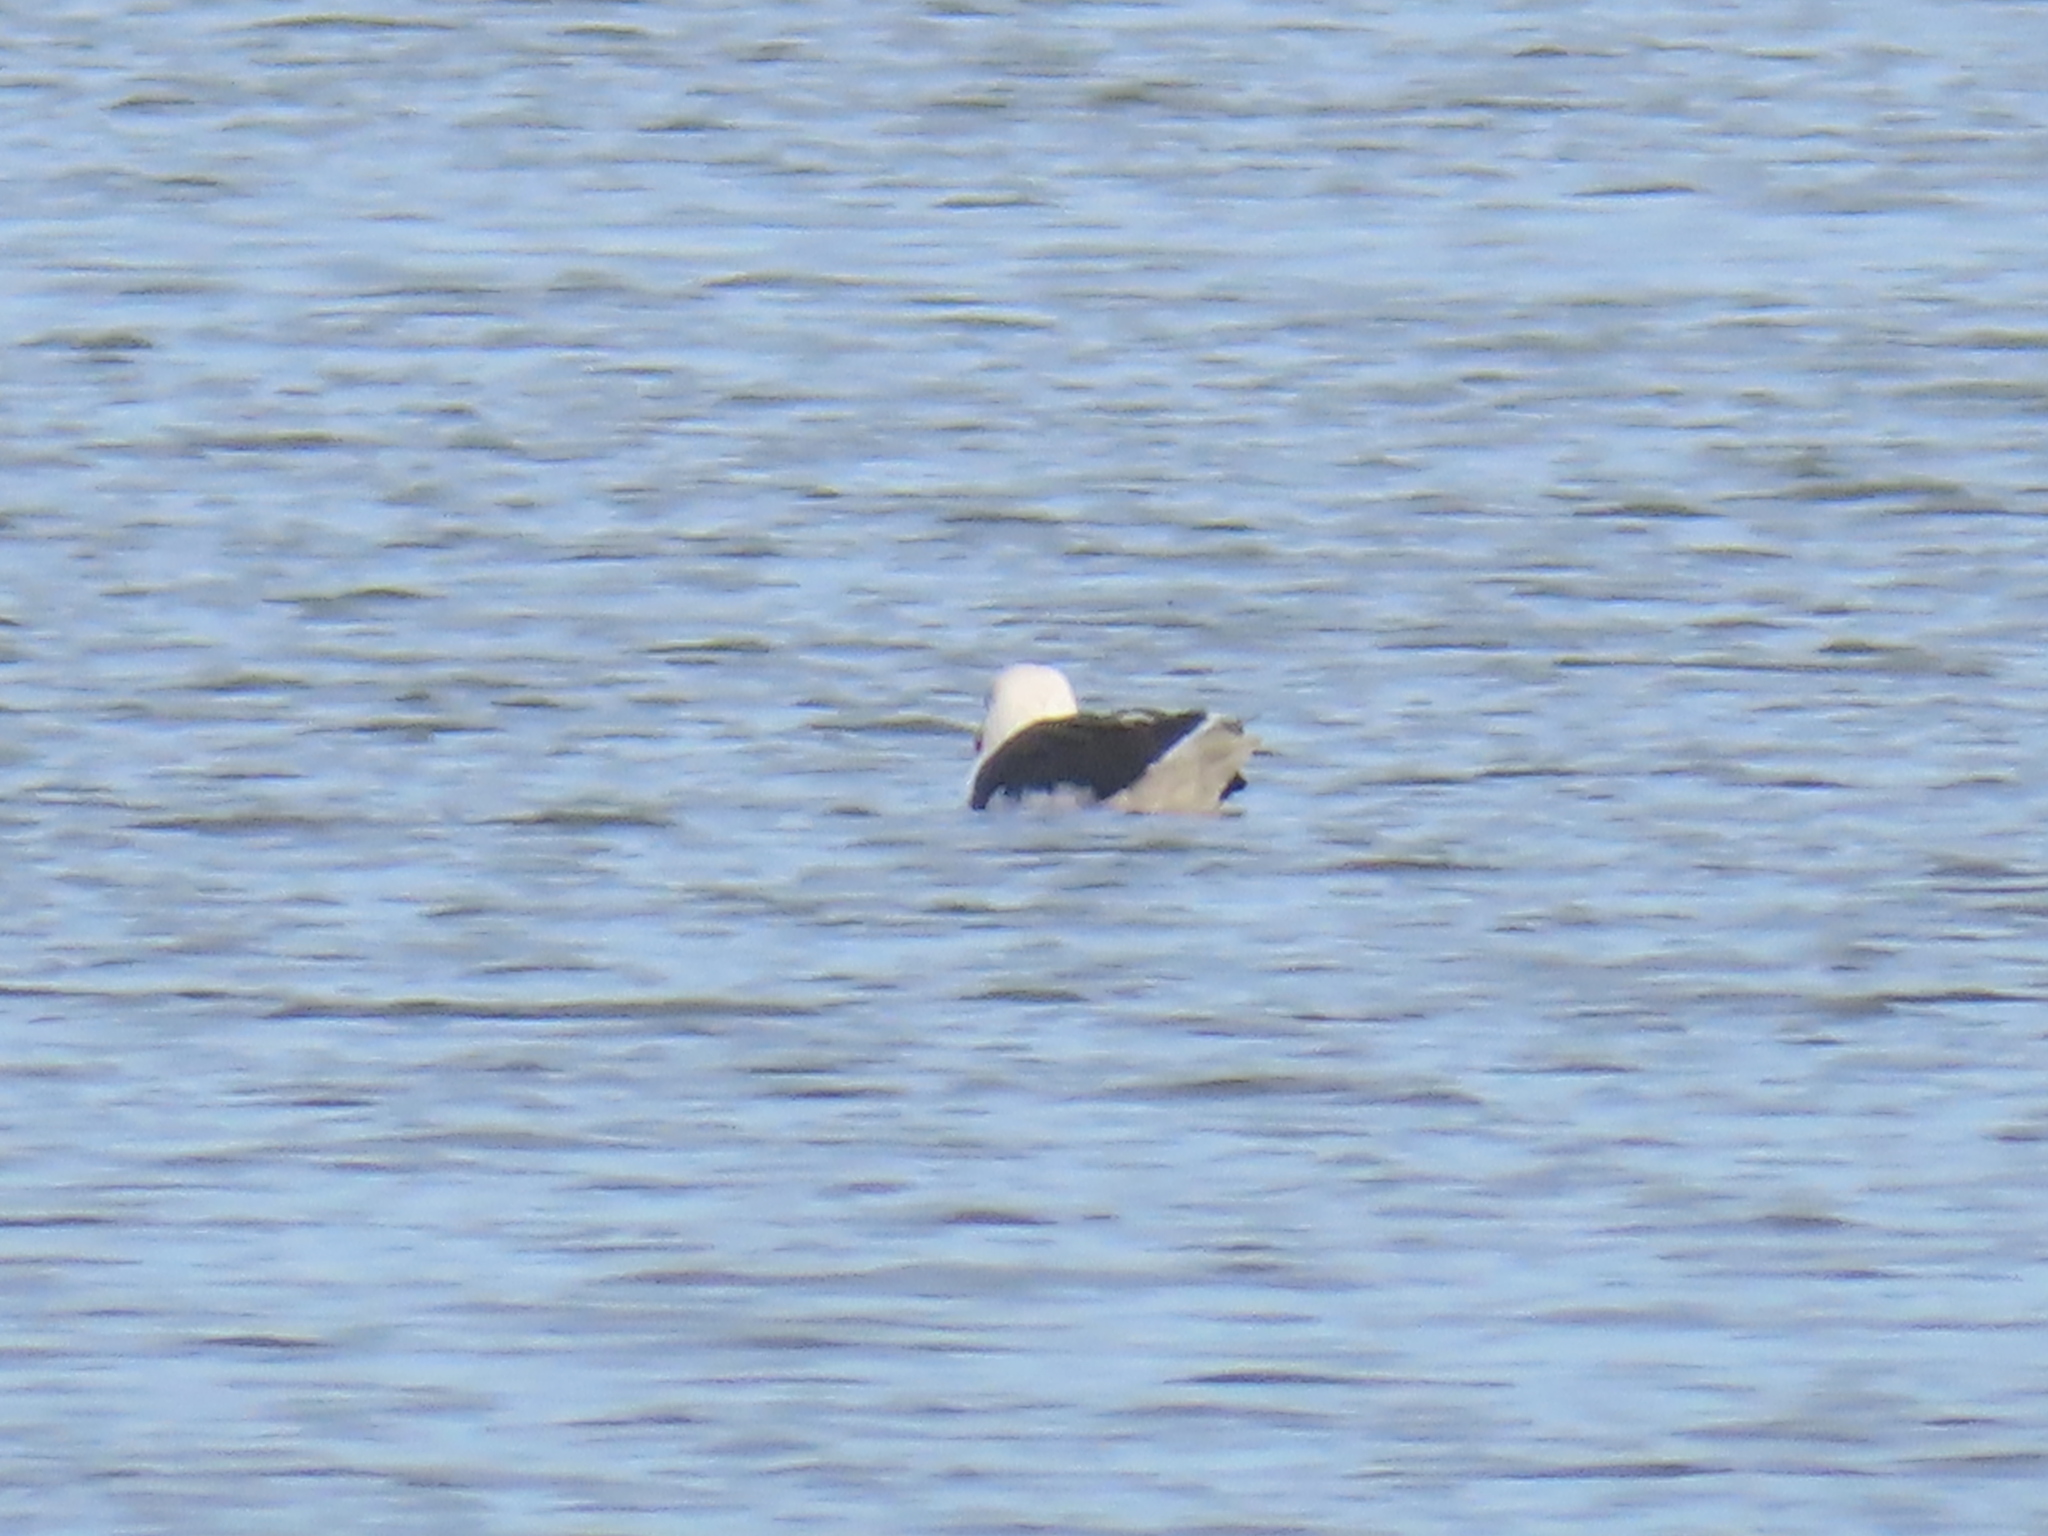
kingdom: Animalia
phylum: Chordata
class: Aves
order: Charadriiformes
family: Laridae
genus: Larus
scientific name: Larus marinus
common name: Great black-backed gull
